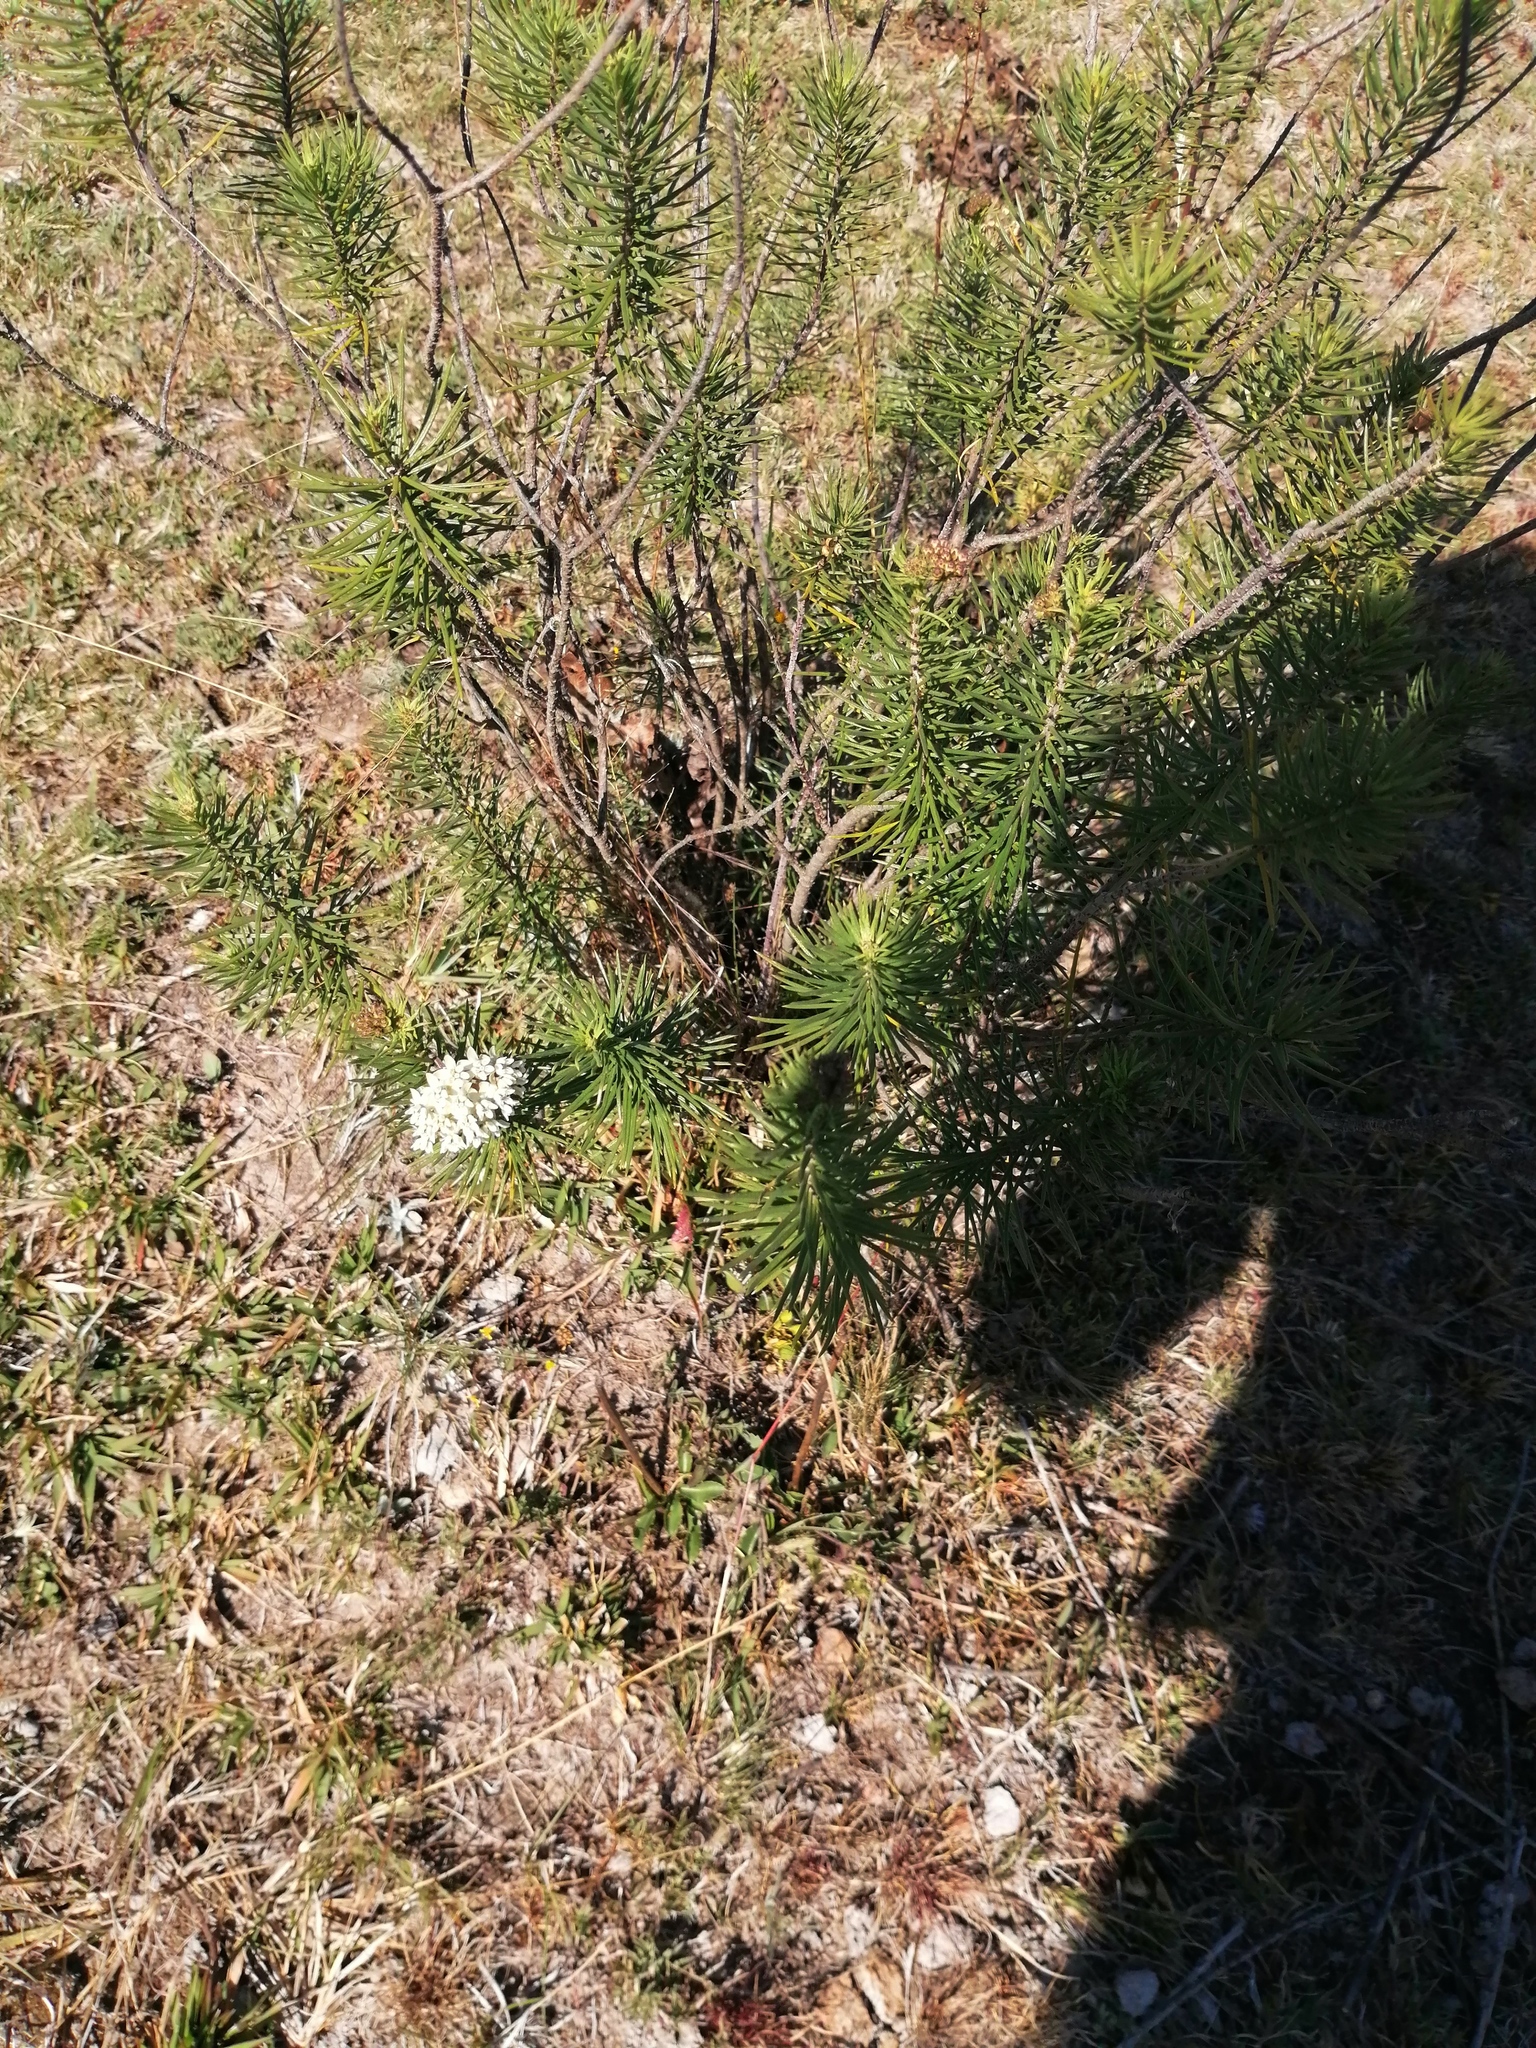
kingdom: Plantae
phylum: Tracheophyta
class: Magnoliopsida
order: Gentianales
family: Apocynaceae
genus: Asclepias
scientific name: Asclepias linaria
